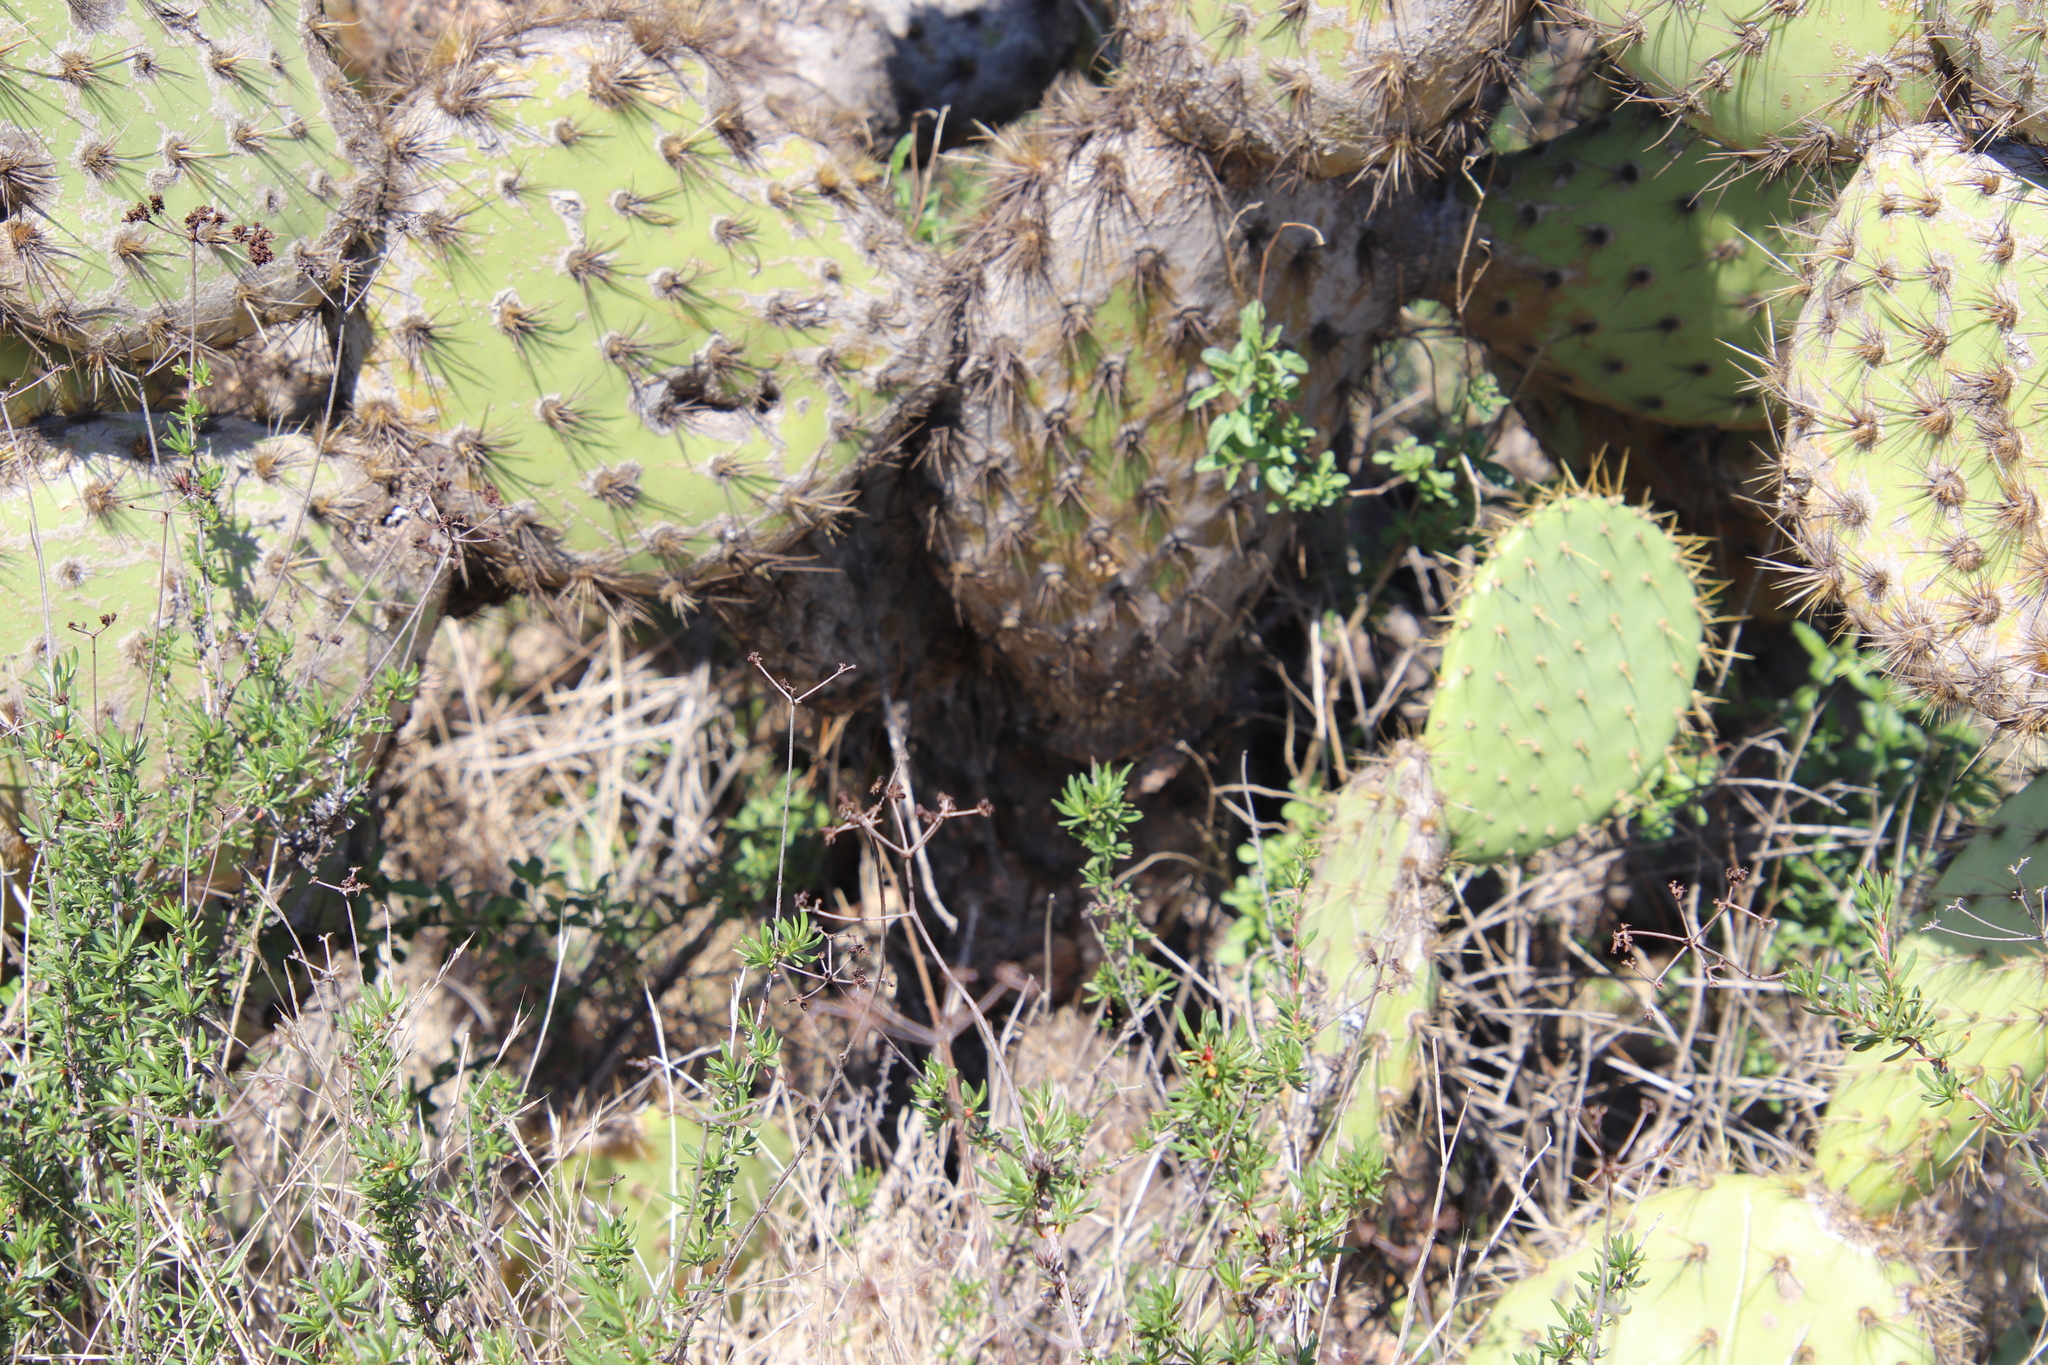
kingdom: Plantae
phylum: Tracheophyta
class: Magnoliopsida
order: Caryophyllales
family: Cactaceae
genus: Opuntia
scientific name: Opuntia oricola
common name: Chaparral prickly-pear
